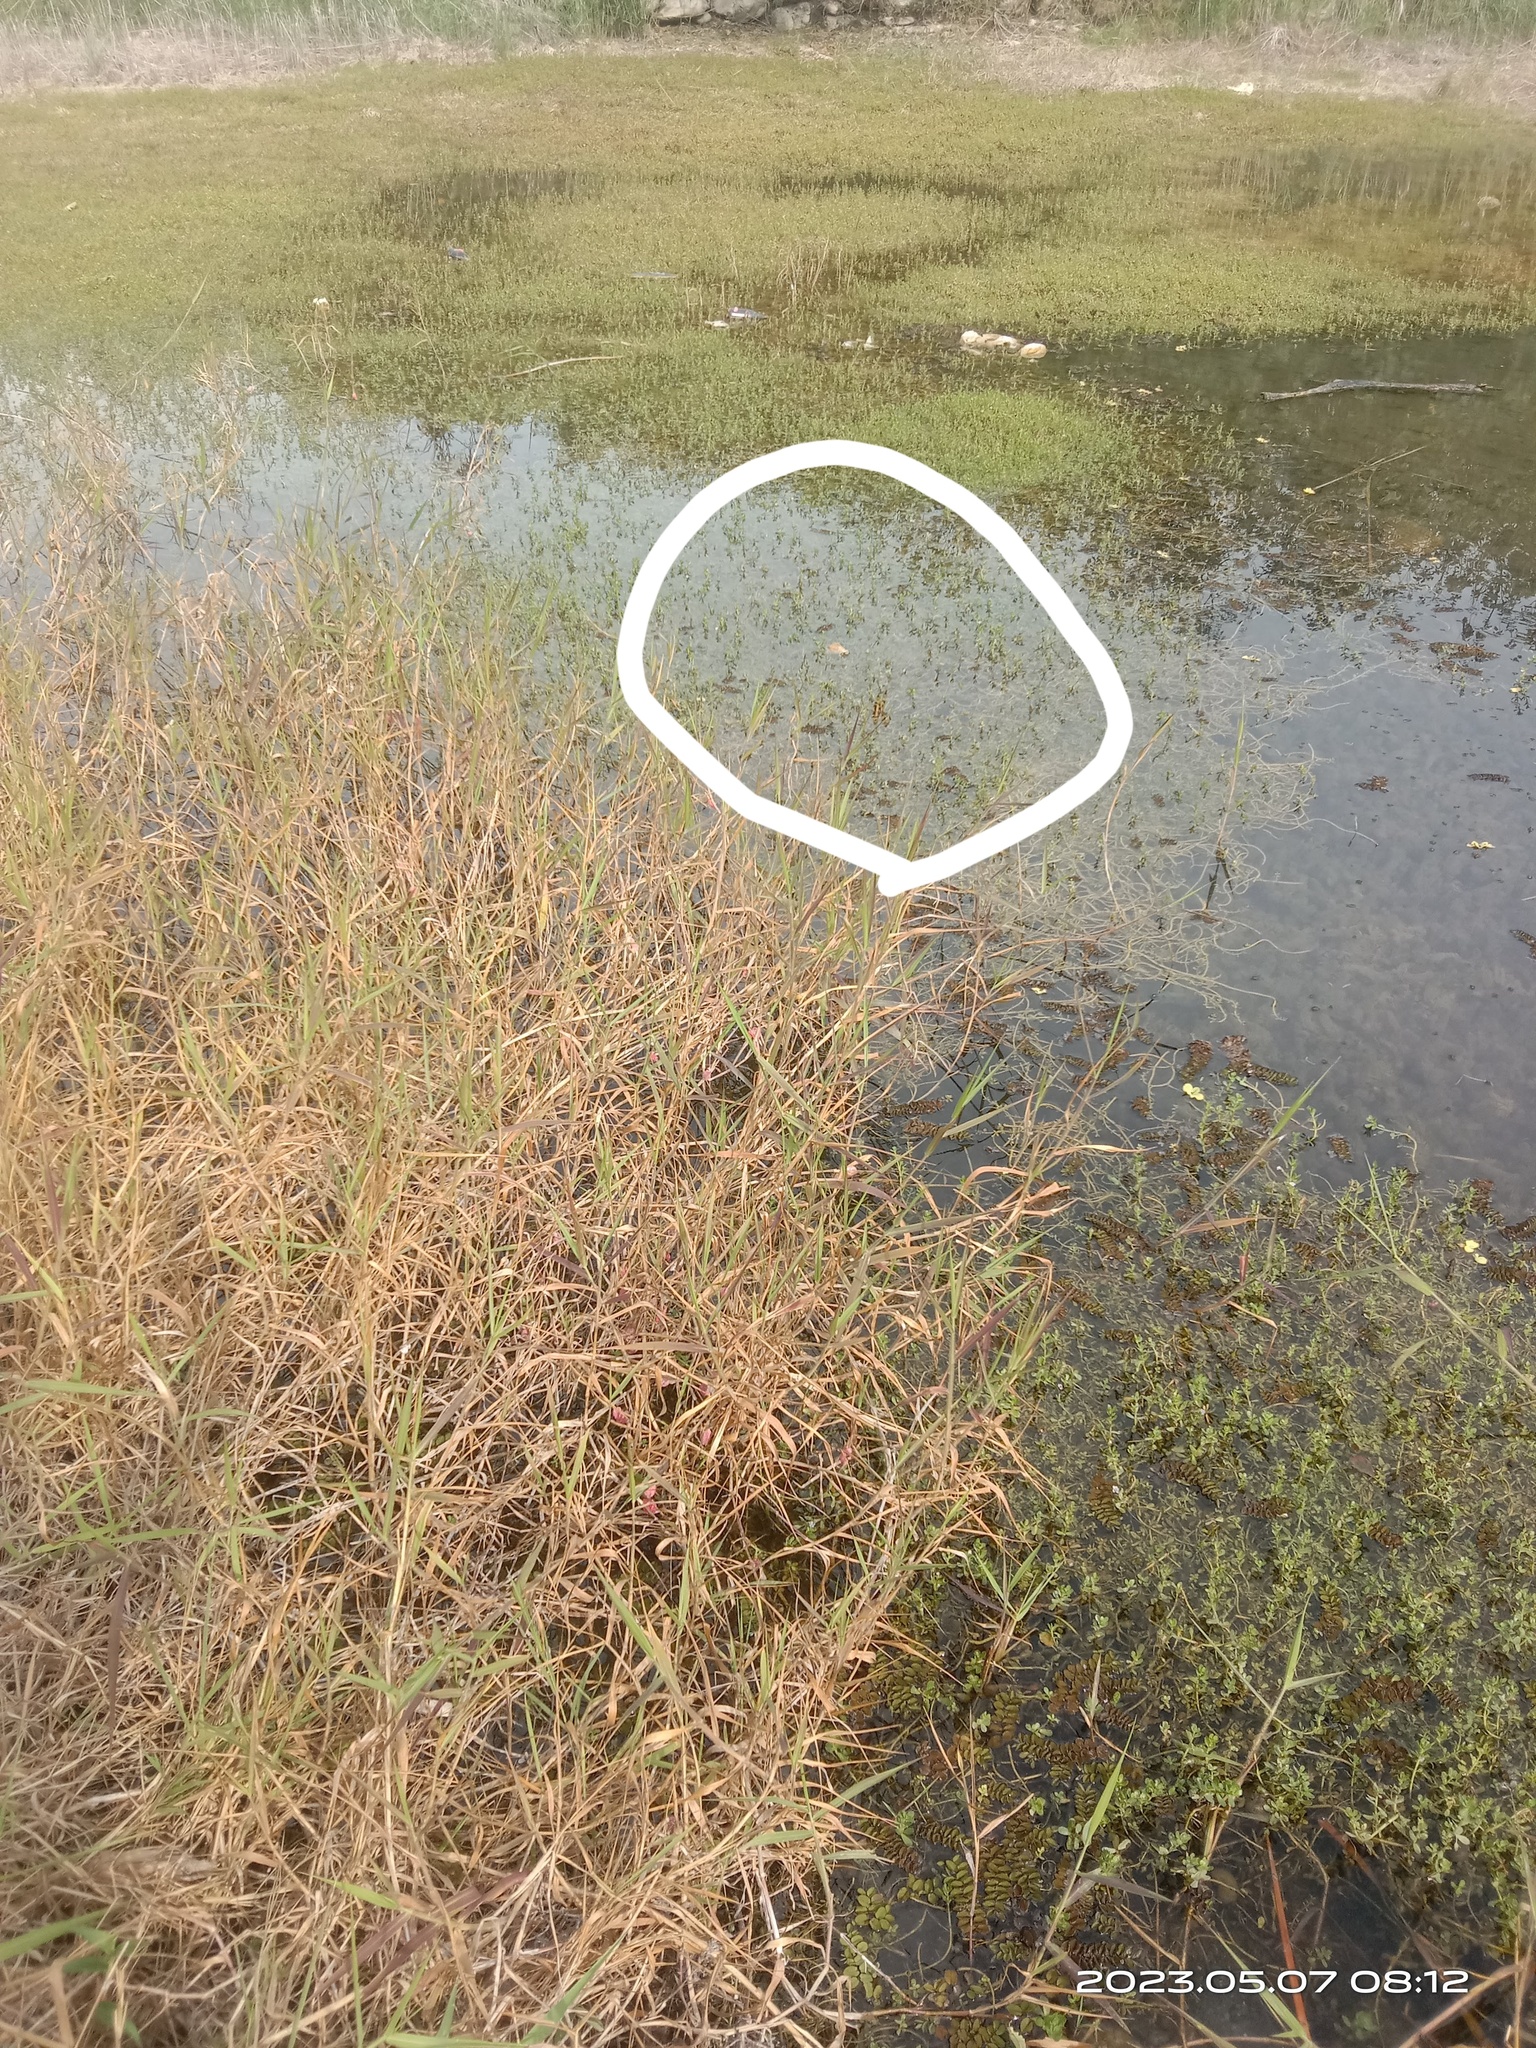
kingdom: Animalia
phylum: Arthropoda
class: Insecta
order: Odonata
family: Libellulidae
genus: Rhyothemis
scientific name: Rhyothemis variegata
